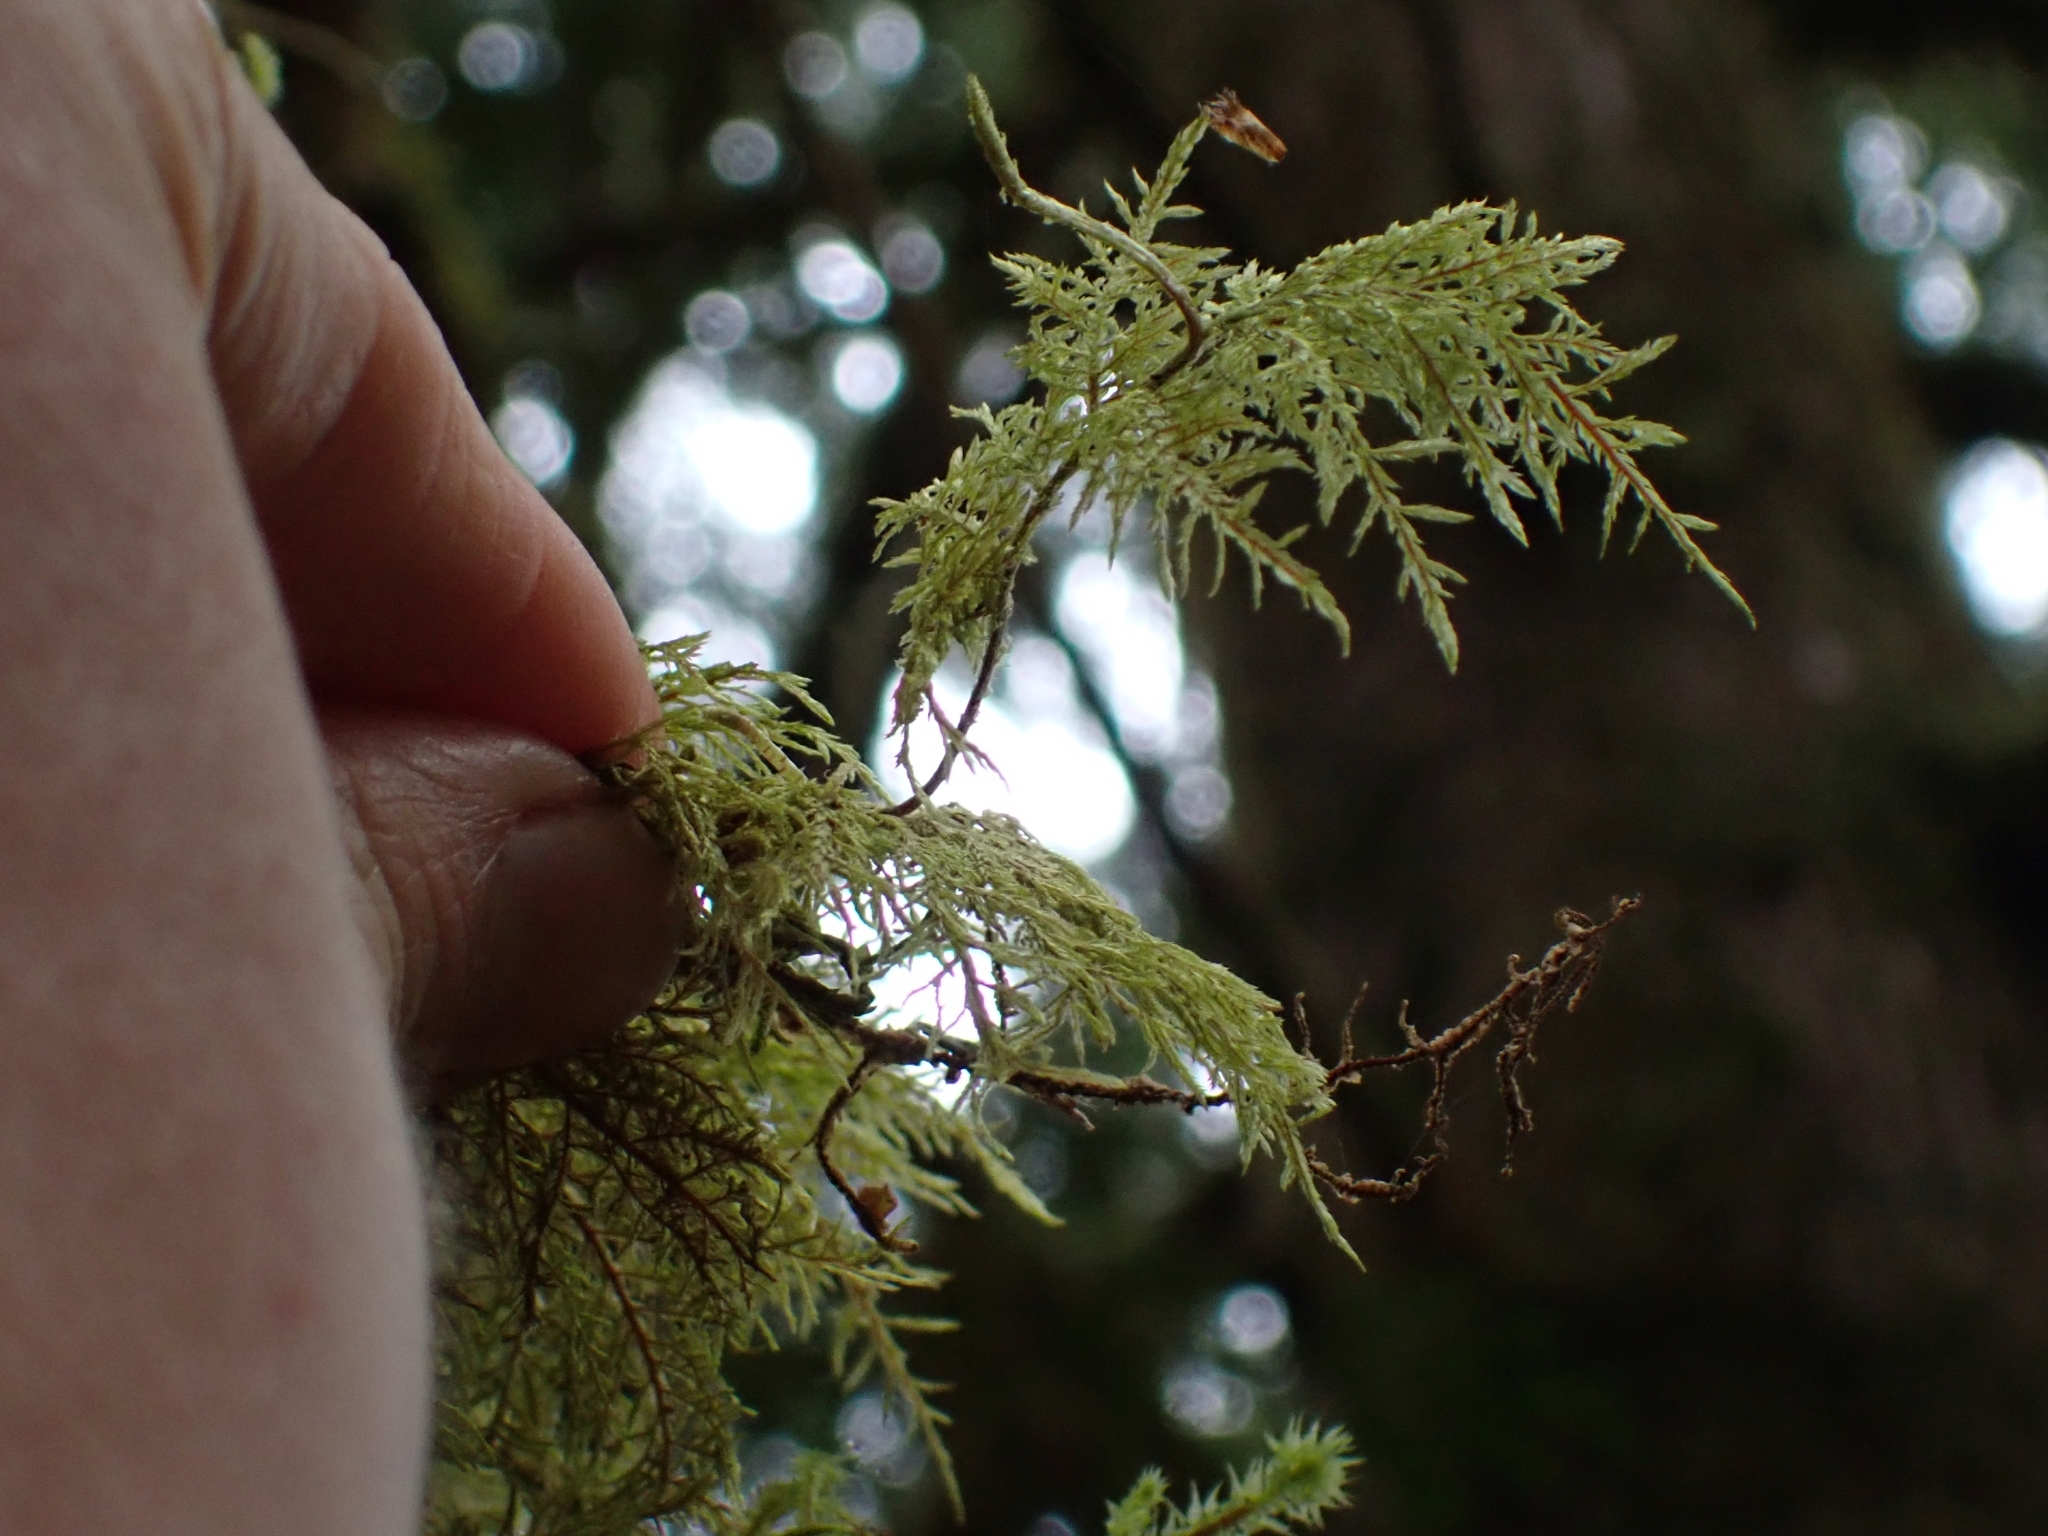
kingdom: Plantae
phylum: Bryophyta
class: Bryopsida
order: Hypnales
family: Hylocomiaceae
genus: Hylocomium
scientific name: Hylocomium splendens
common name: Stairstep moss
